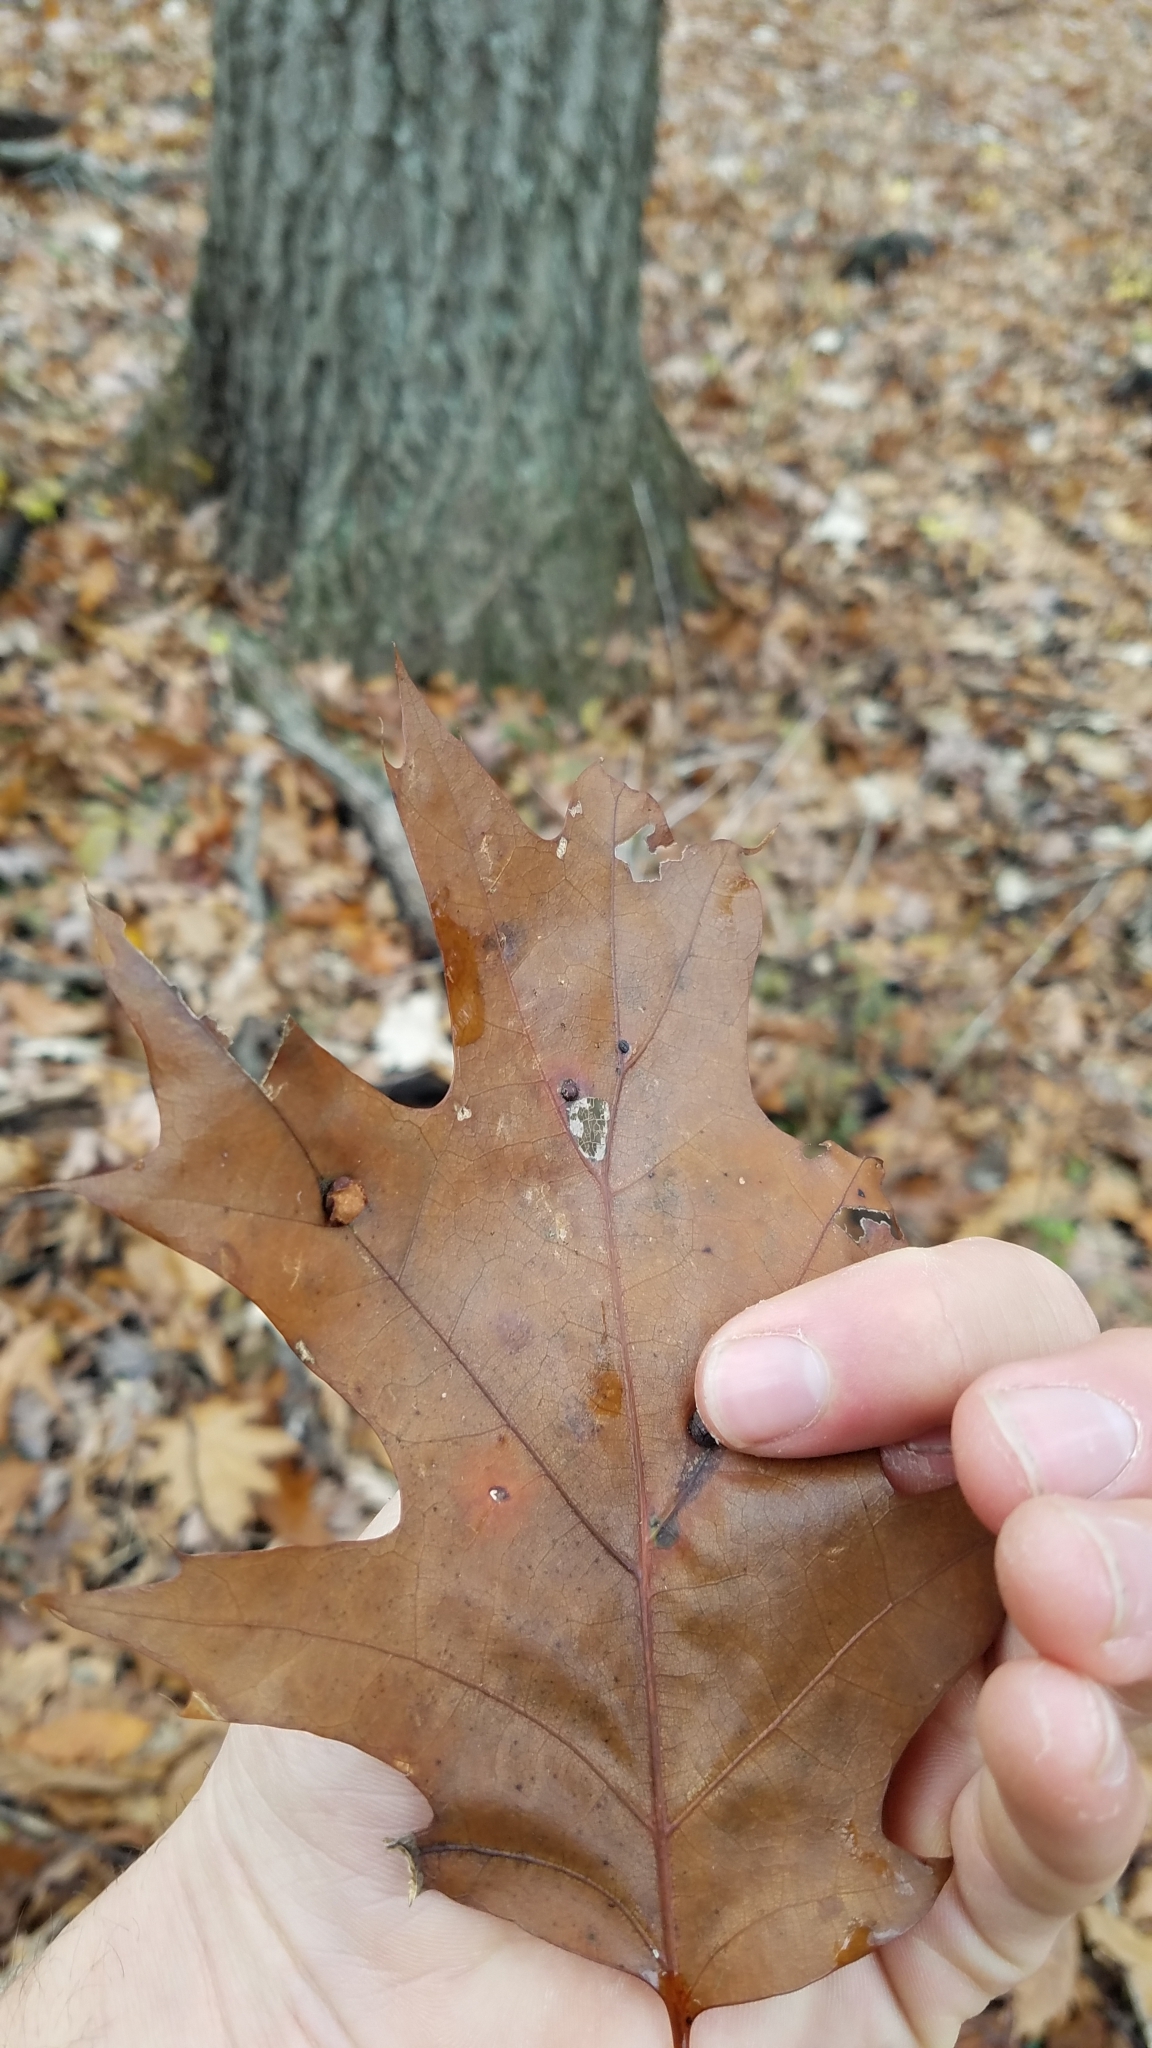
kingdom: Plantae
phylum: Tracheophyta
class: Magnoliopsida
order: Fagales
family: Fagaceae
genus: Quercus
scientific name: Quercus rubra
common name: Red oak
